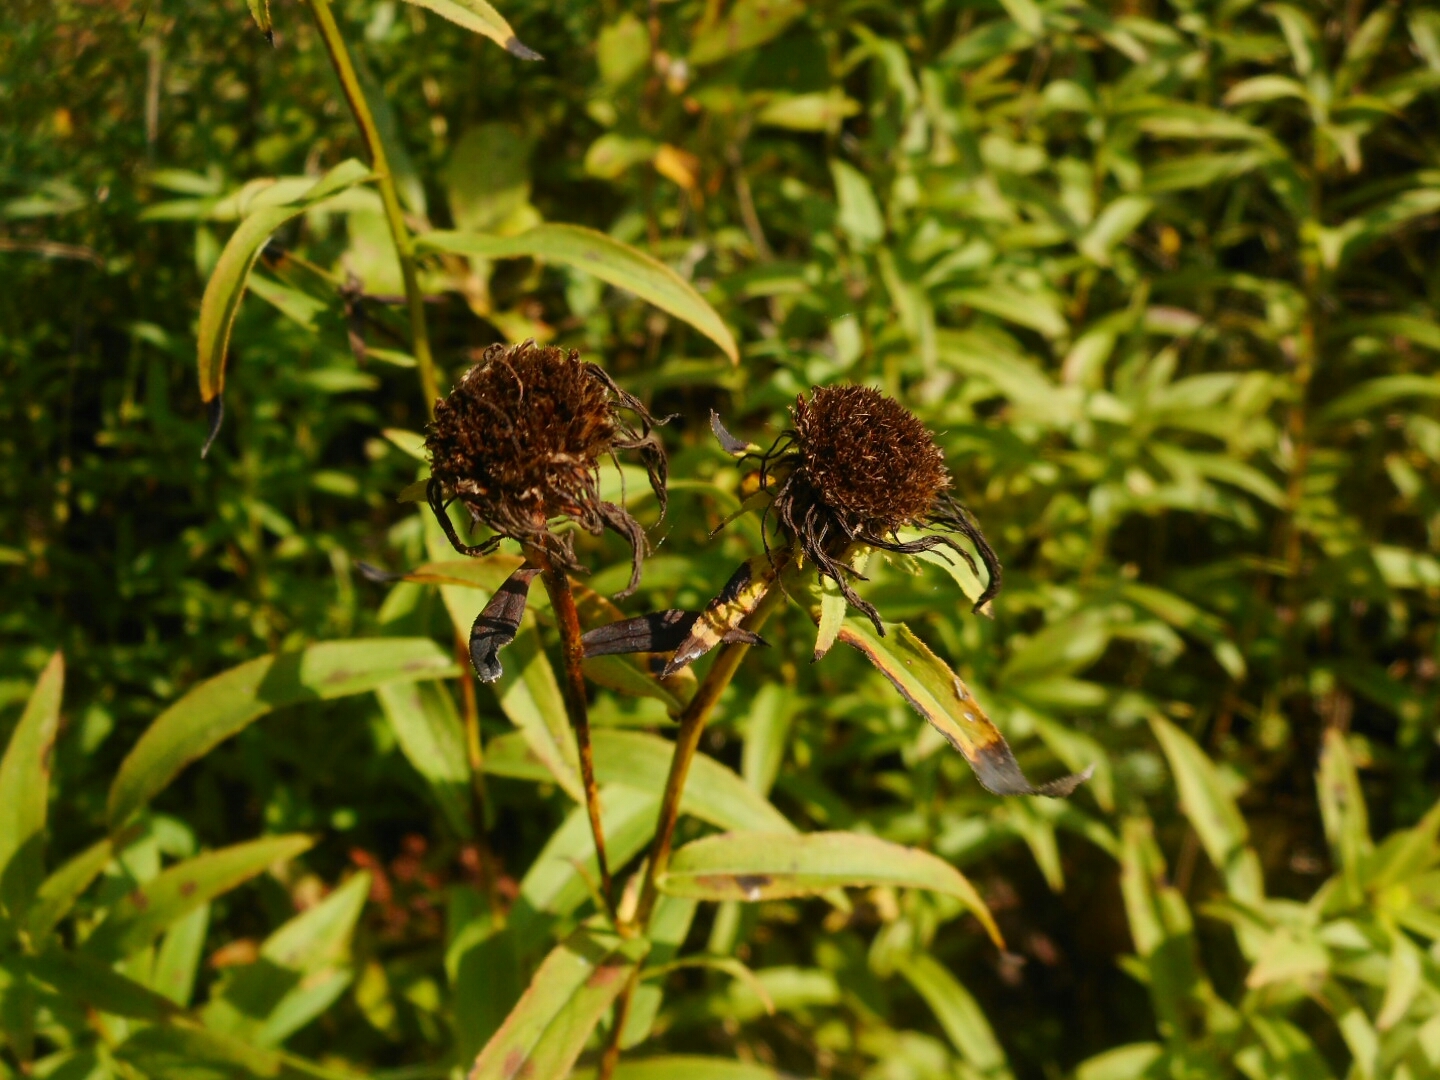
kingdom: Plantae
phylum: Tracheophyta
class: Magnoliopsida
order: Asterales
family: Asteraceae
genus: Pentanema
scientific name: Pentanema salicinum
